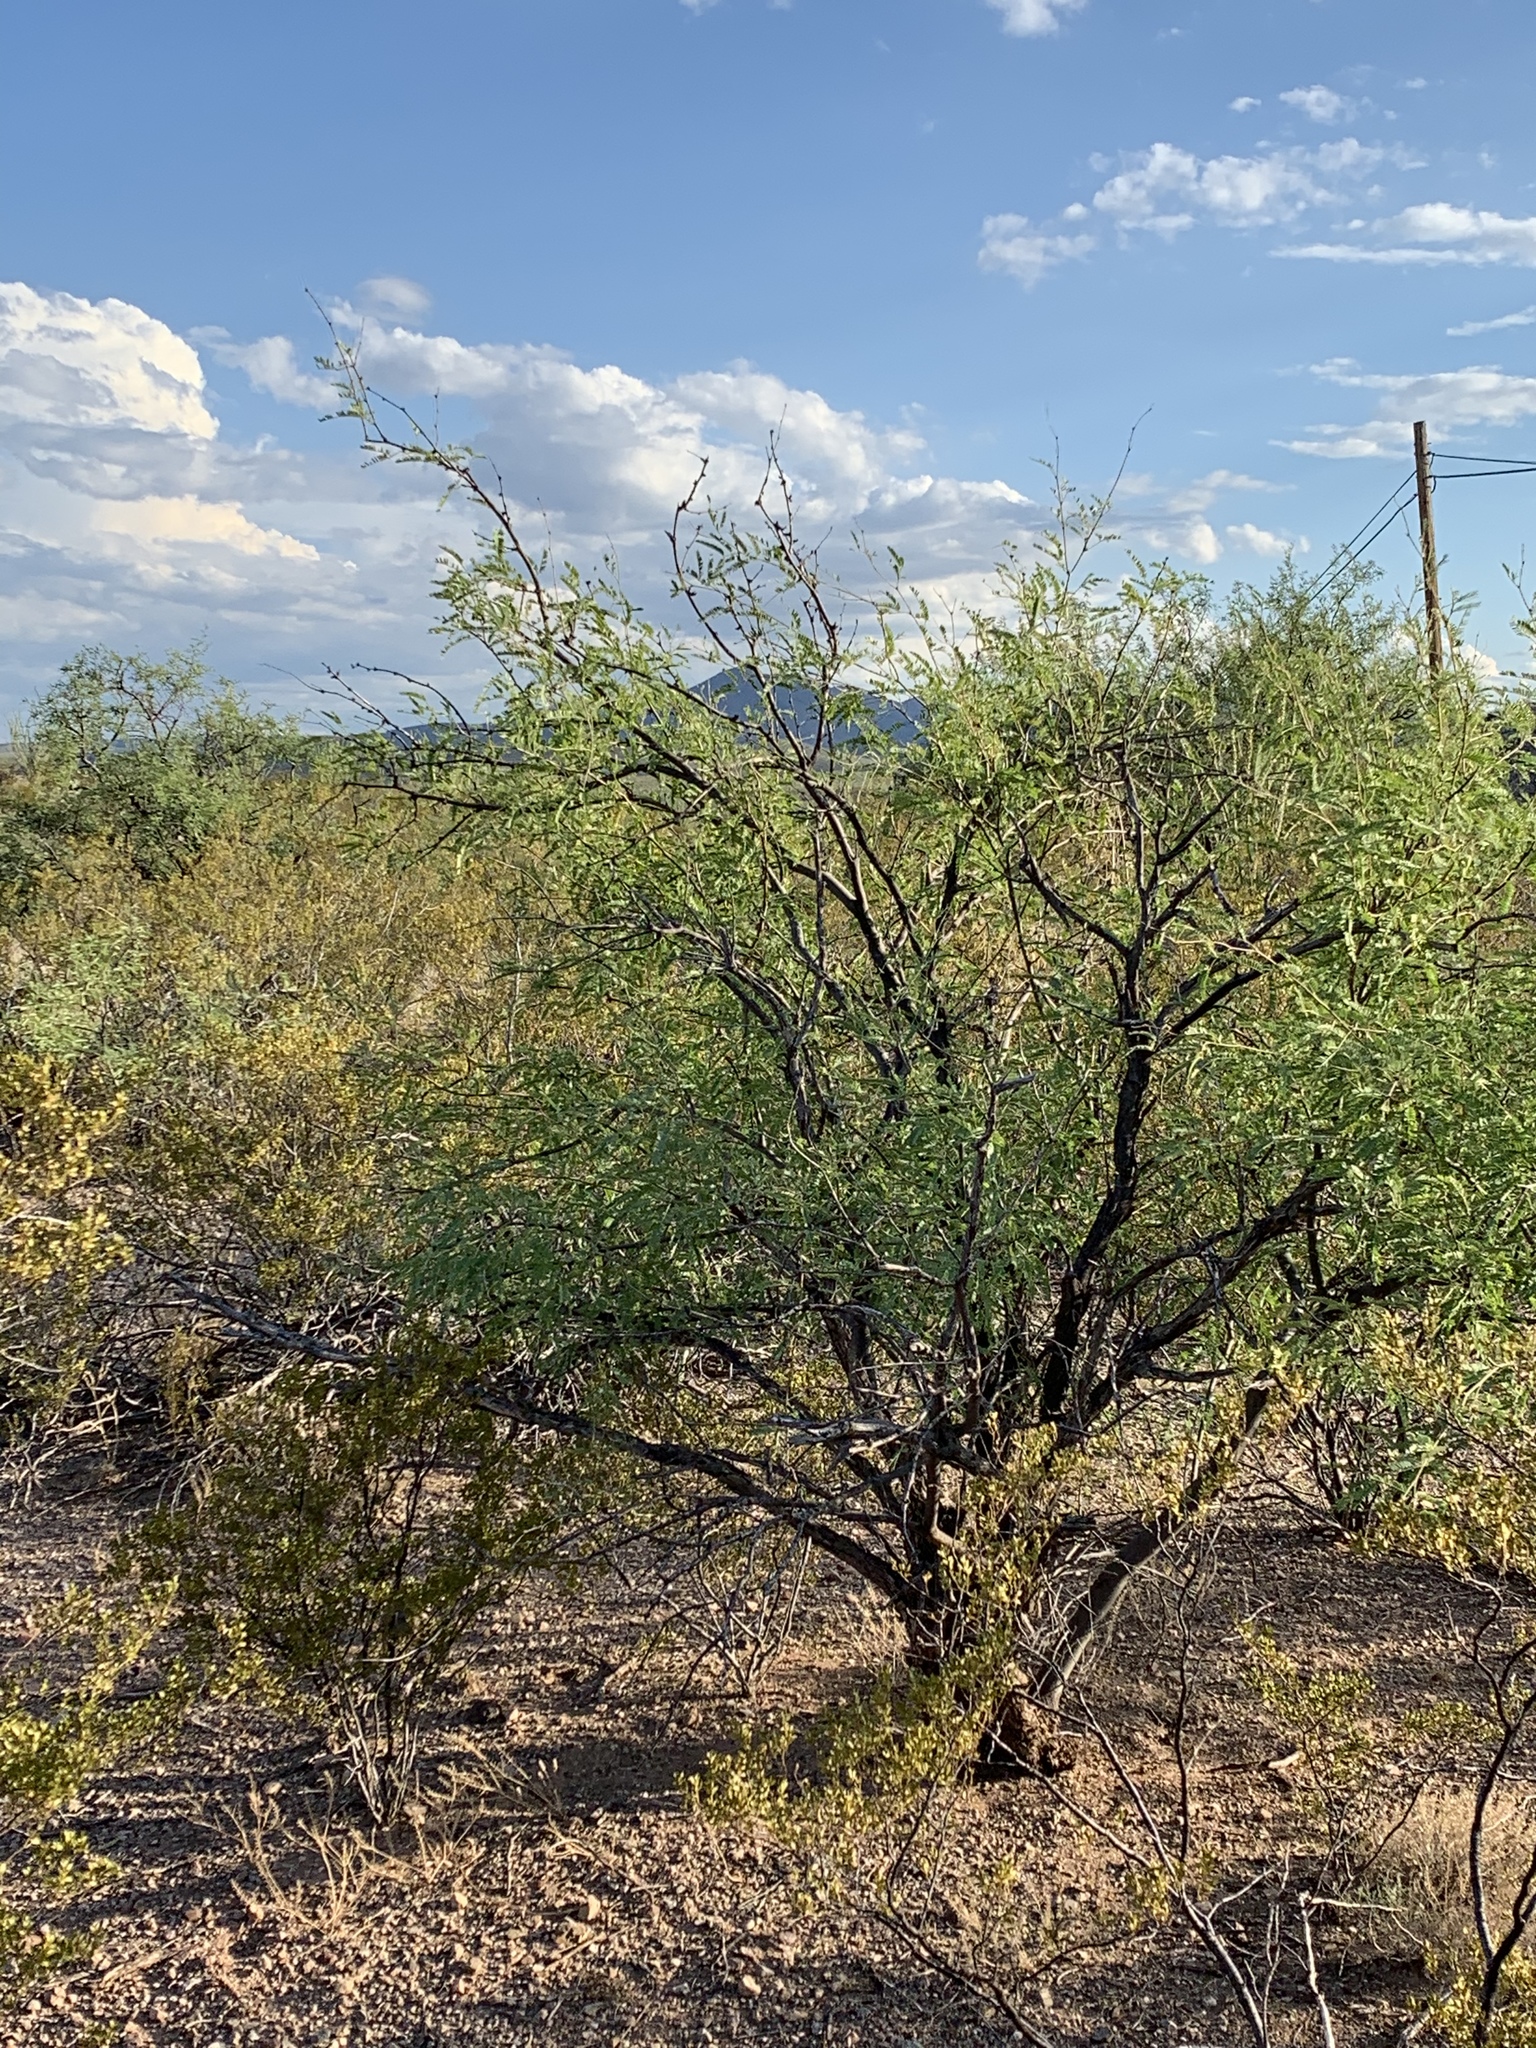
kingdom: Plantae
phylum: Tracheophyta
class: Magnoliopsida
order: Fabales
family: Fabaceae
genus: Prosopis
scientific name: Prosopis velutina
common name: Velvet mesquite
